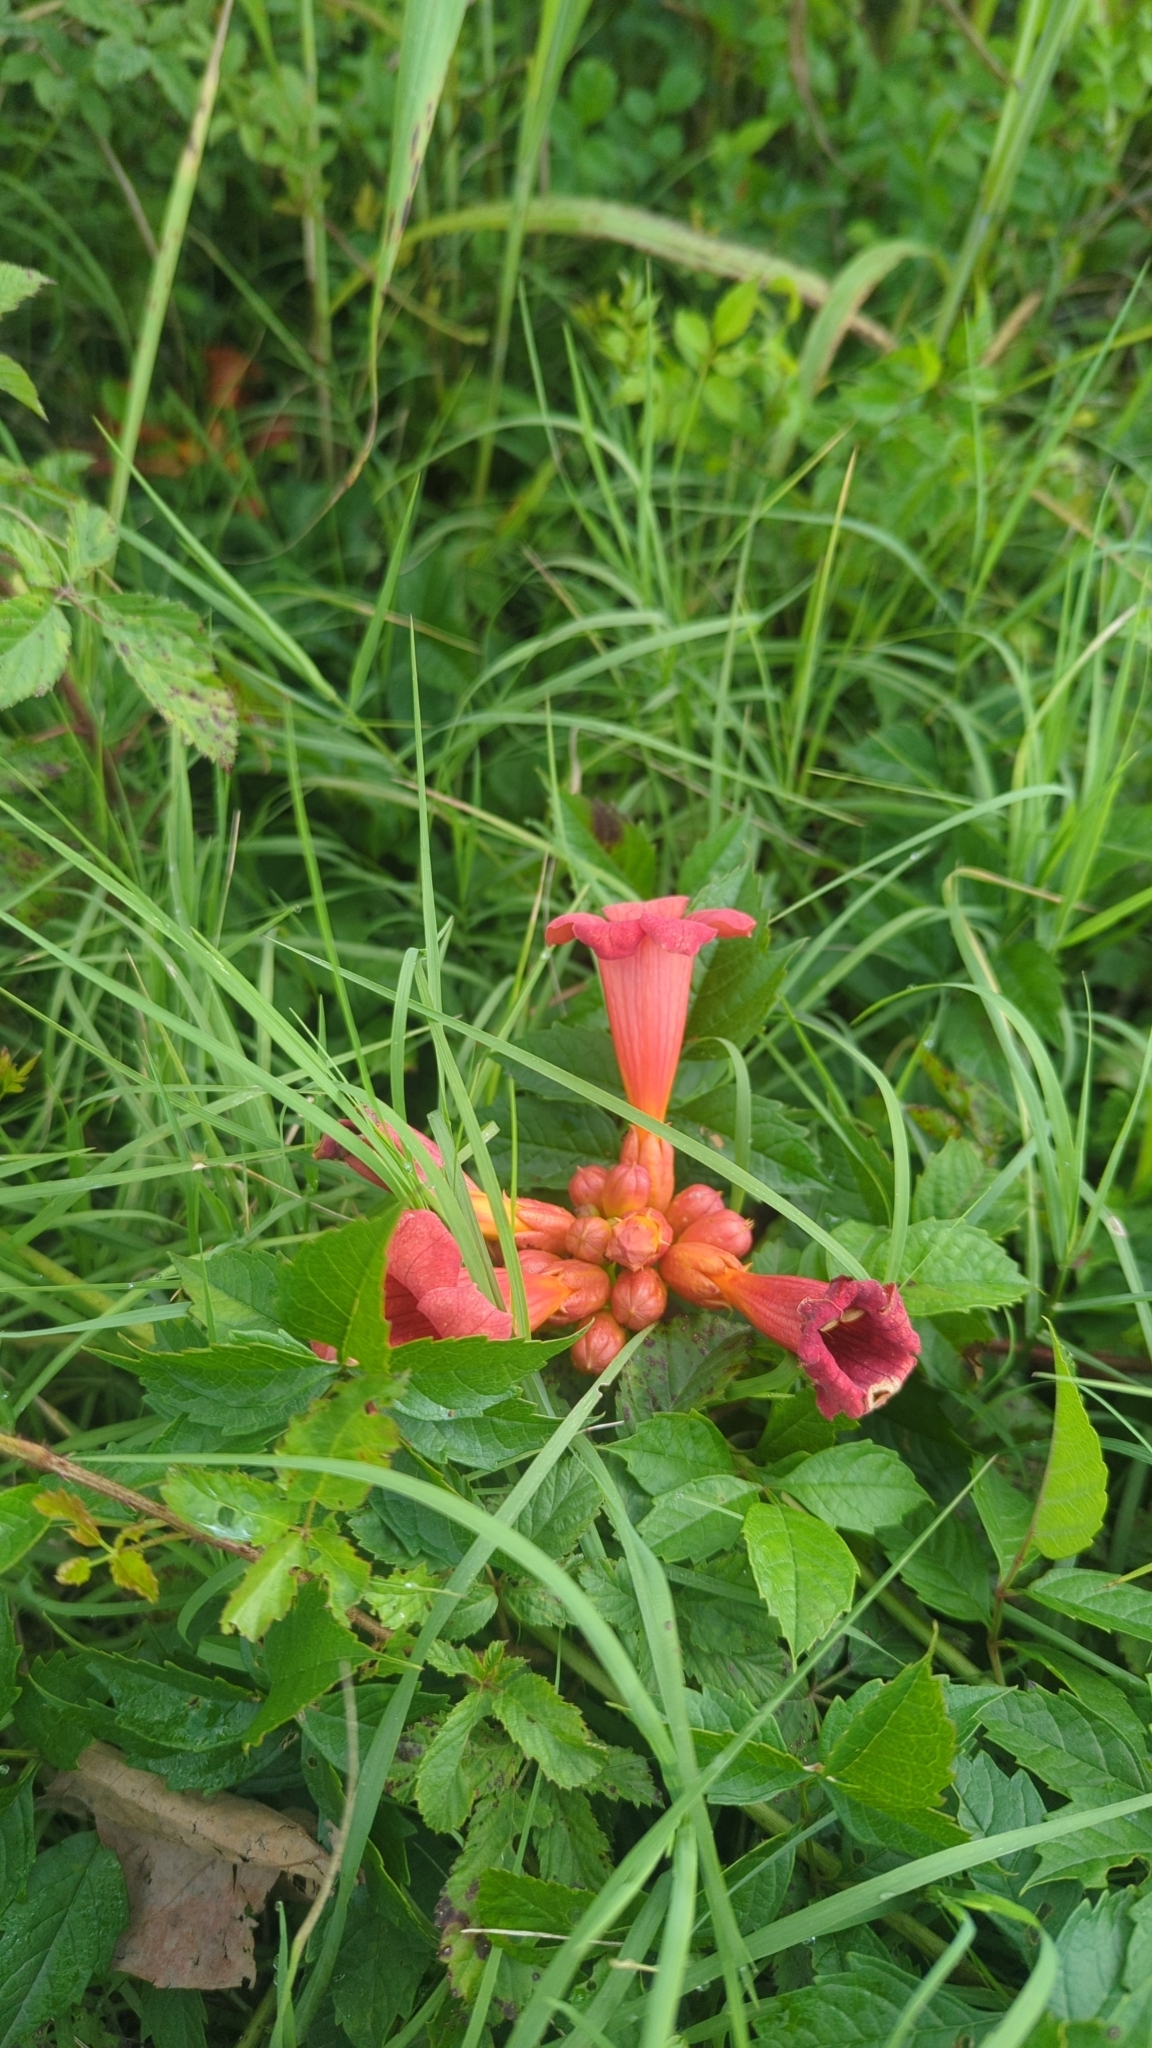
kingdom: Plantae
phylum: Tracheophyta
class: Magnoliopsida
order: Lamiales
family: Bignoniaceae
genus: Campsis
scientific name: Campsis radicans
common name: Trumpet-creeper
